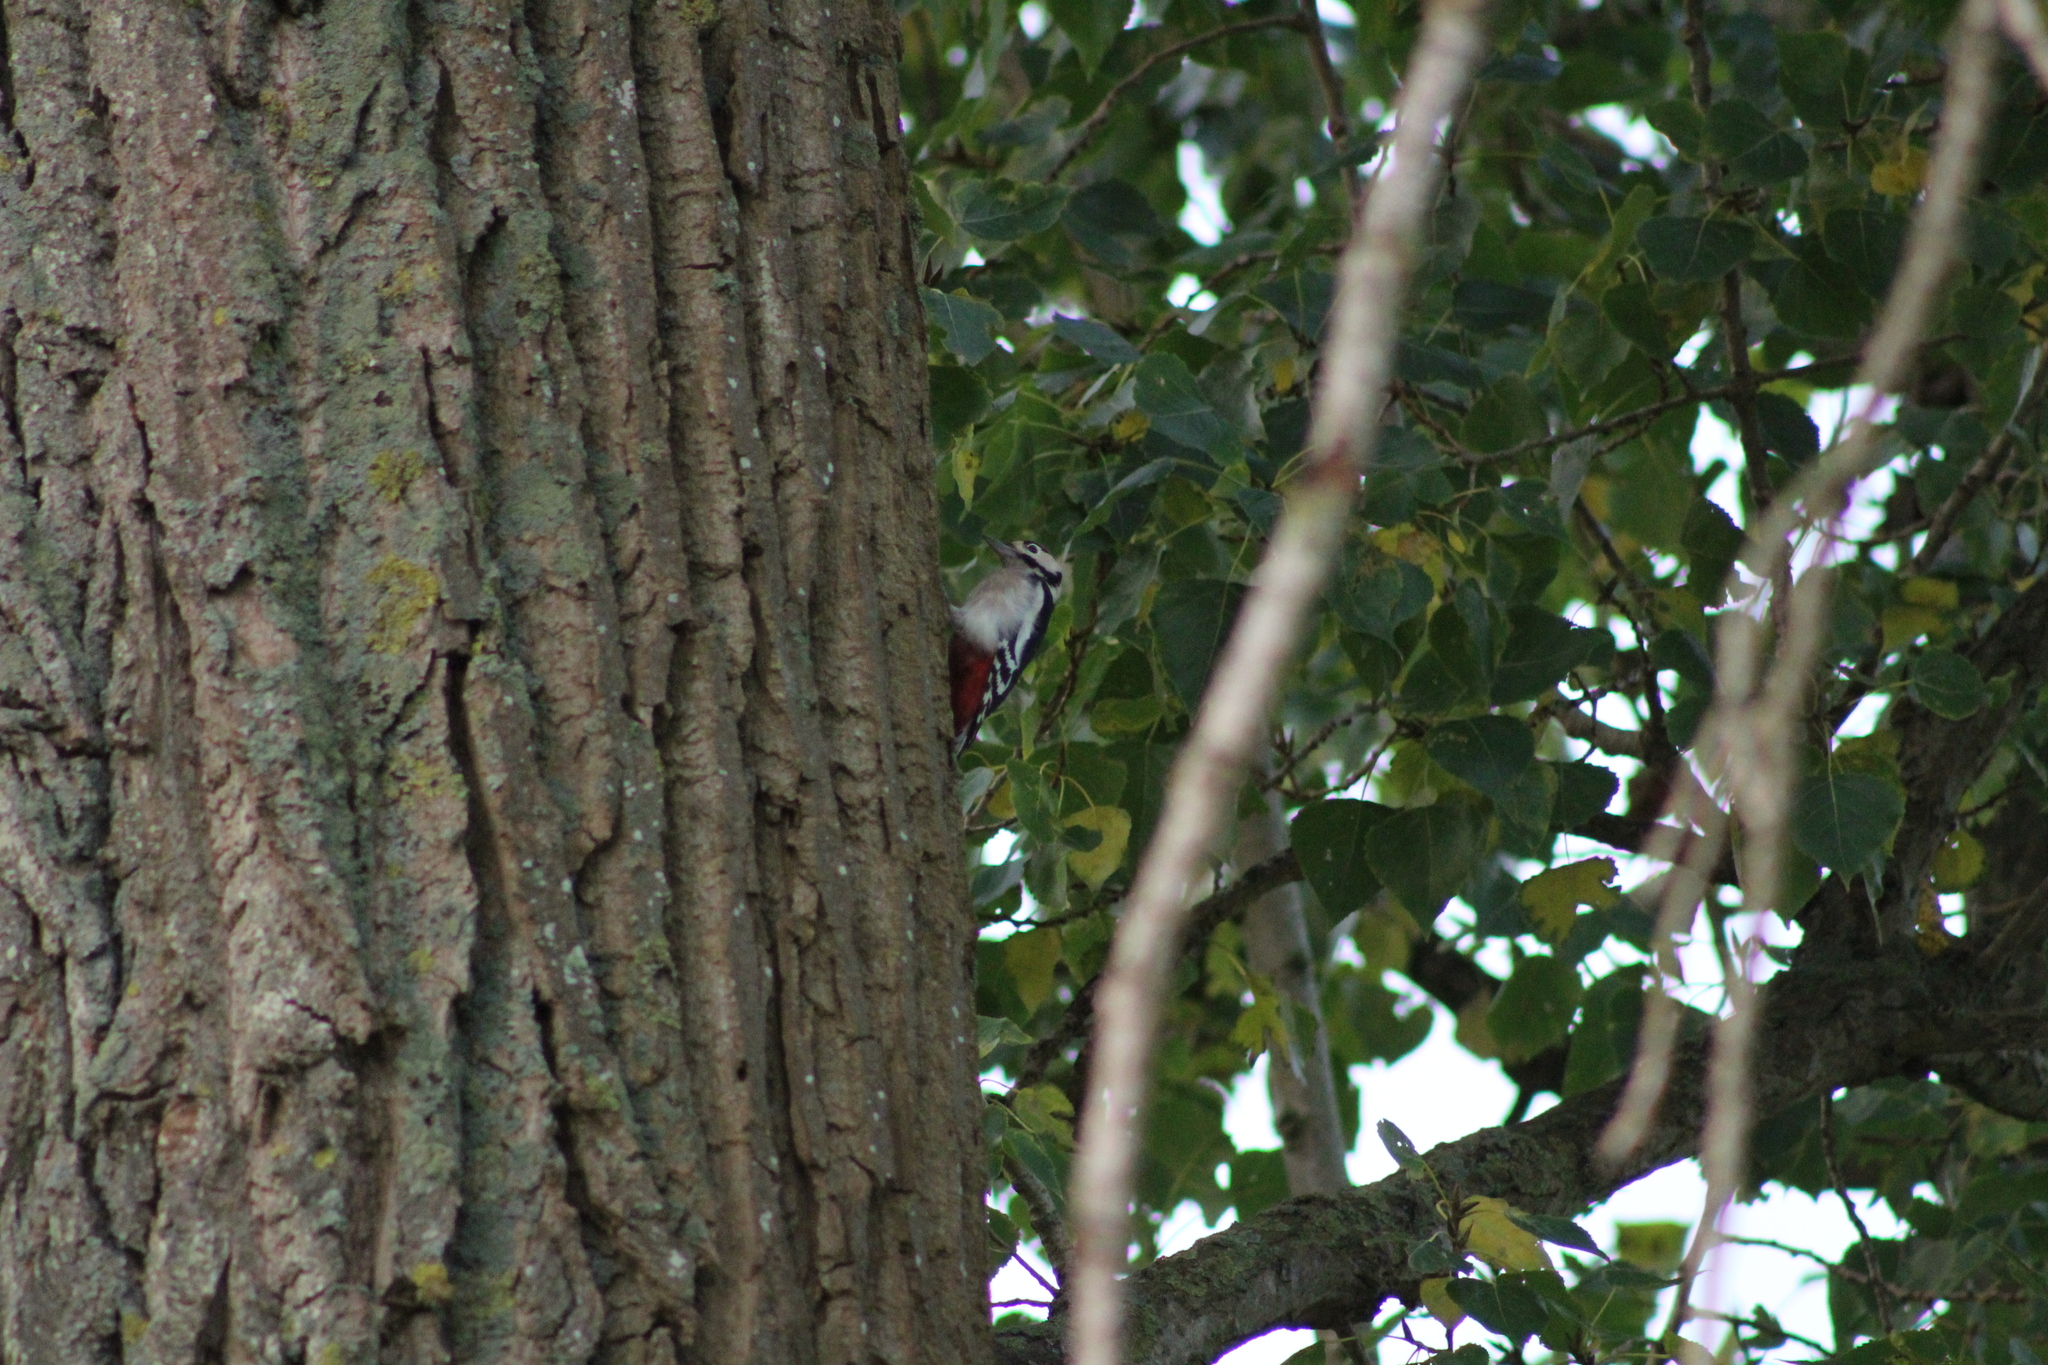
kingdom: Animalia
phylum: Chordata
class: Aves
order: Piciformes
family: Picidae
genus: Dendrocopos
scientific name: Dendrocopos major
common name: Great spotted woodpecker
